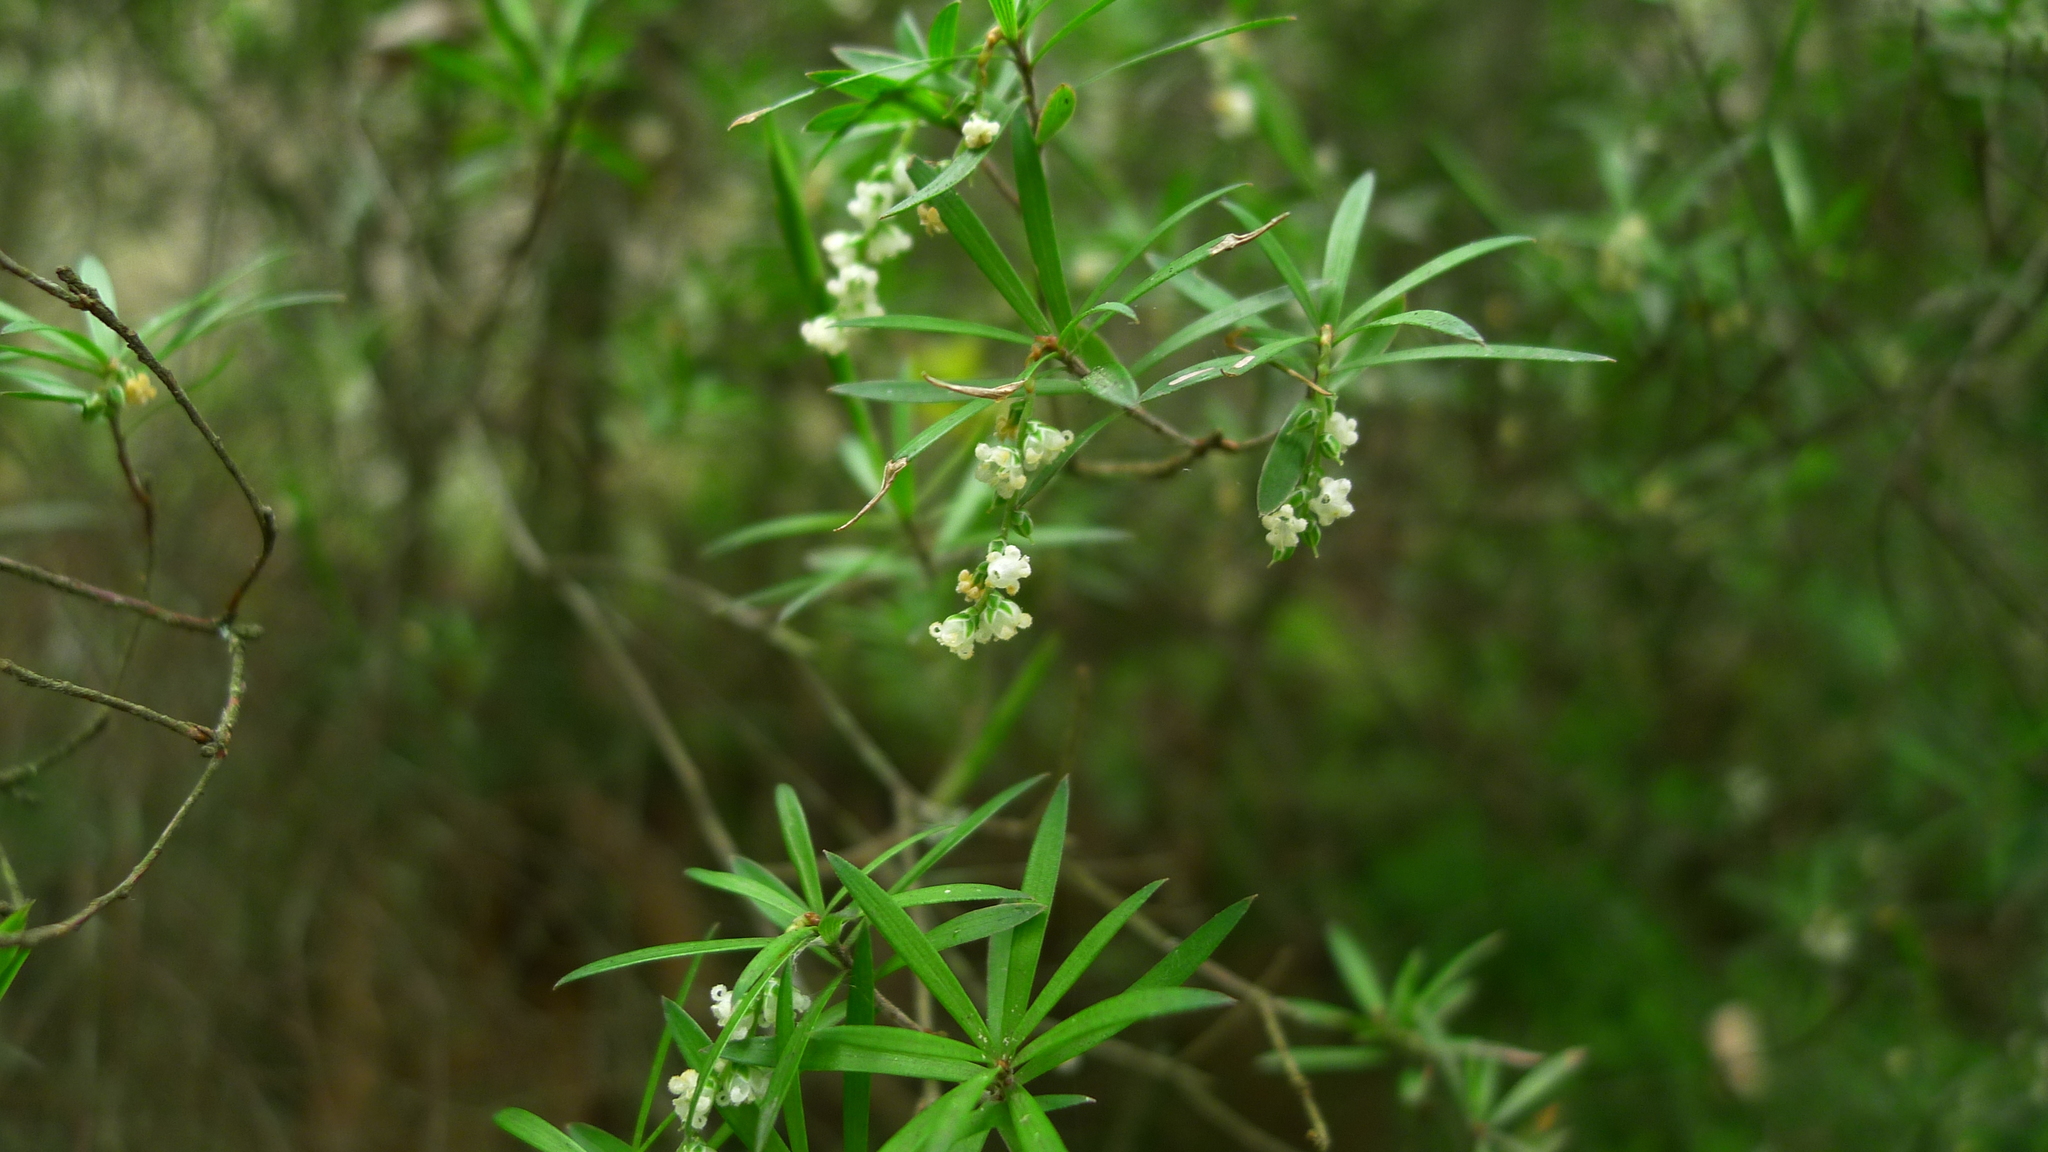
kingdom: Plantae
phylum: Tracheophyta
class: Magnoliopsida
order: Ericales
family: Ericaceae
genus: Leucopogon
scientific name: Leucopogon fasciculatus
